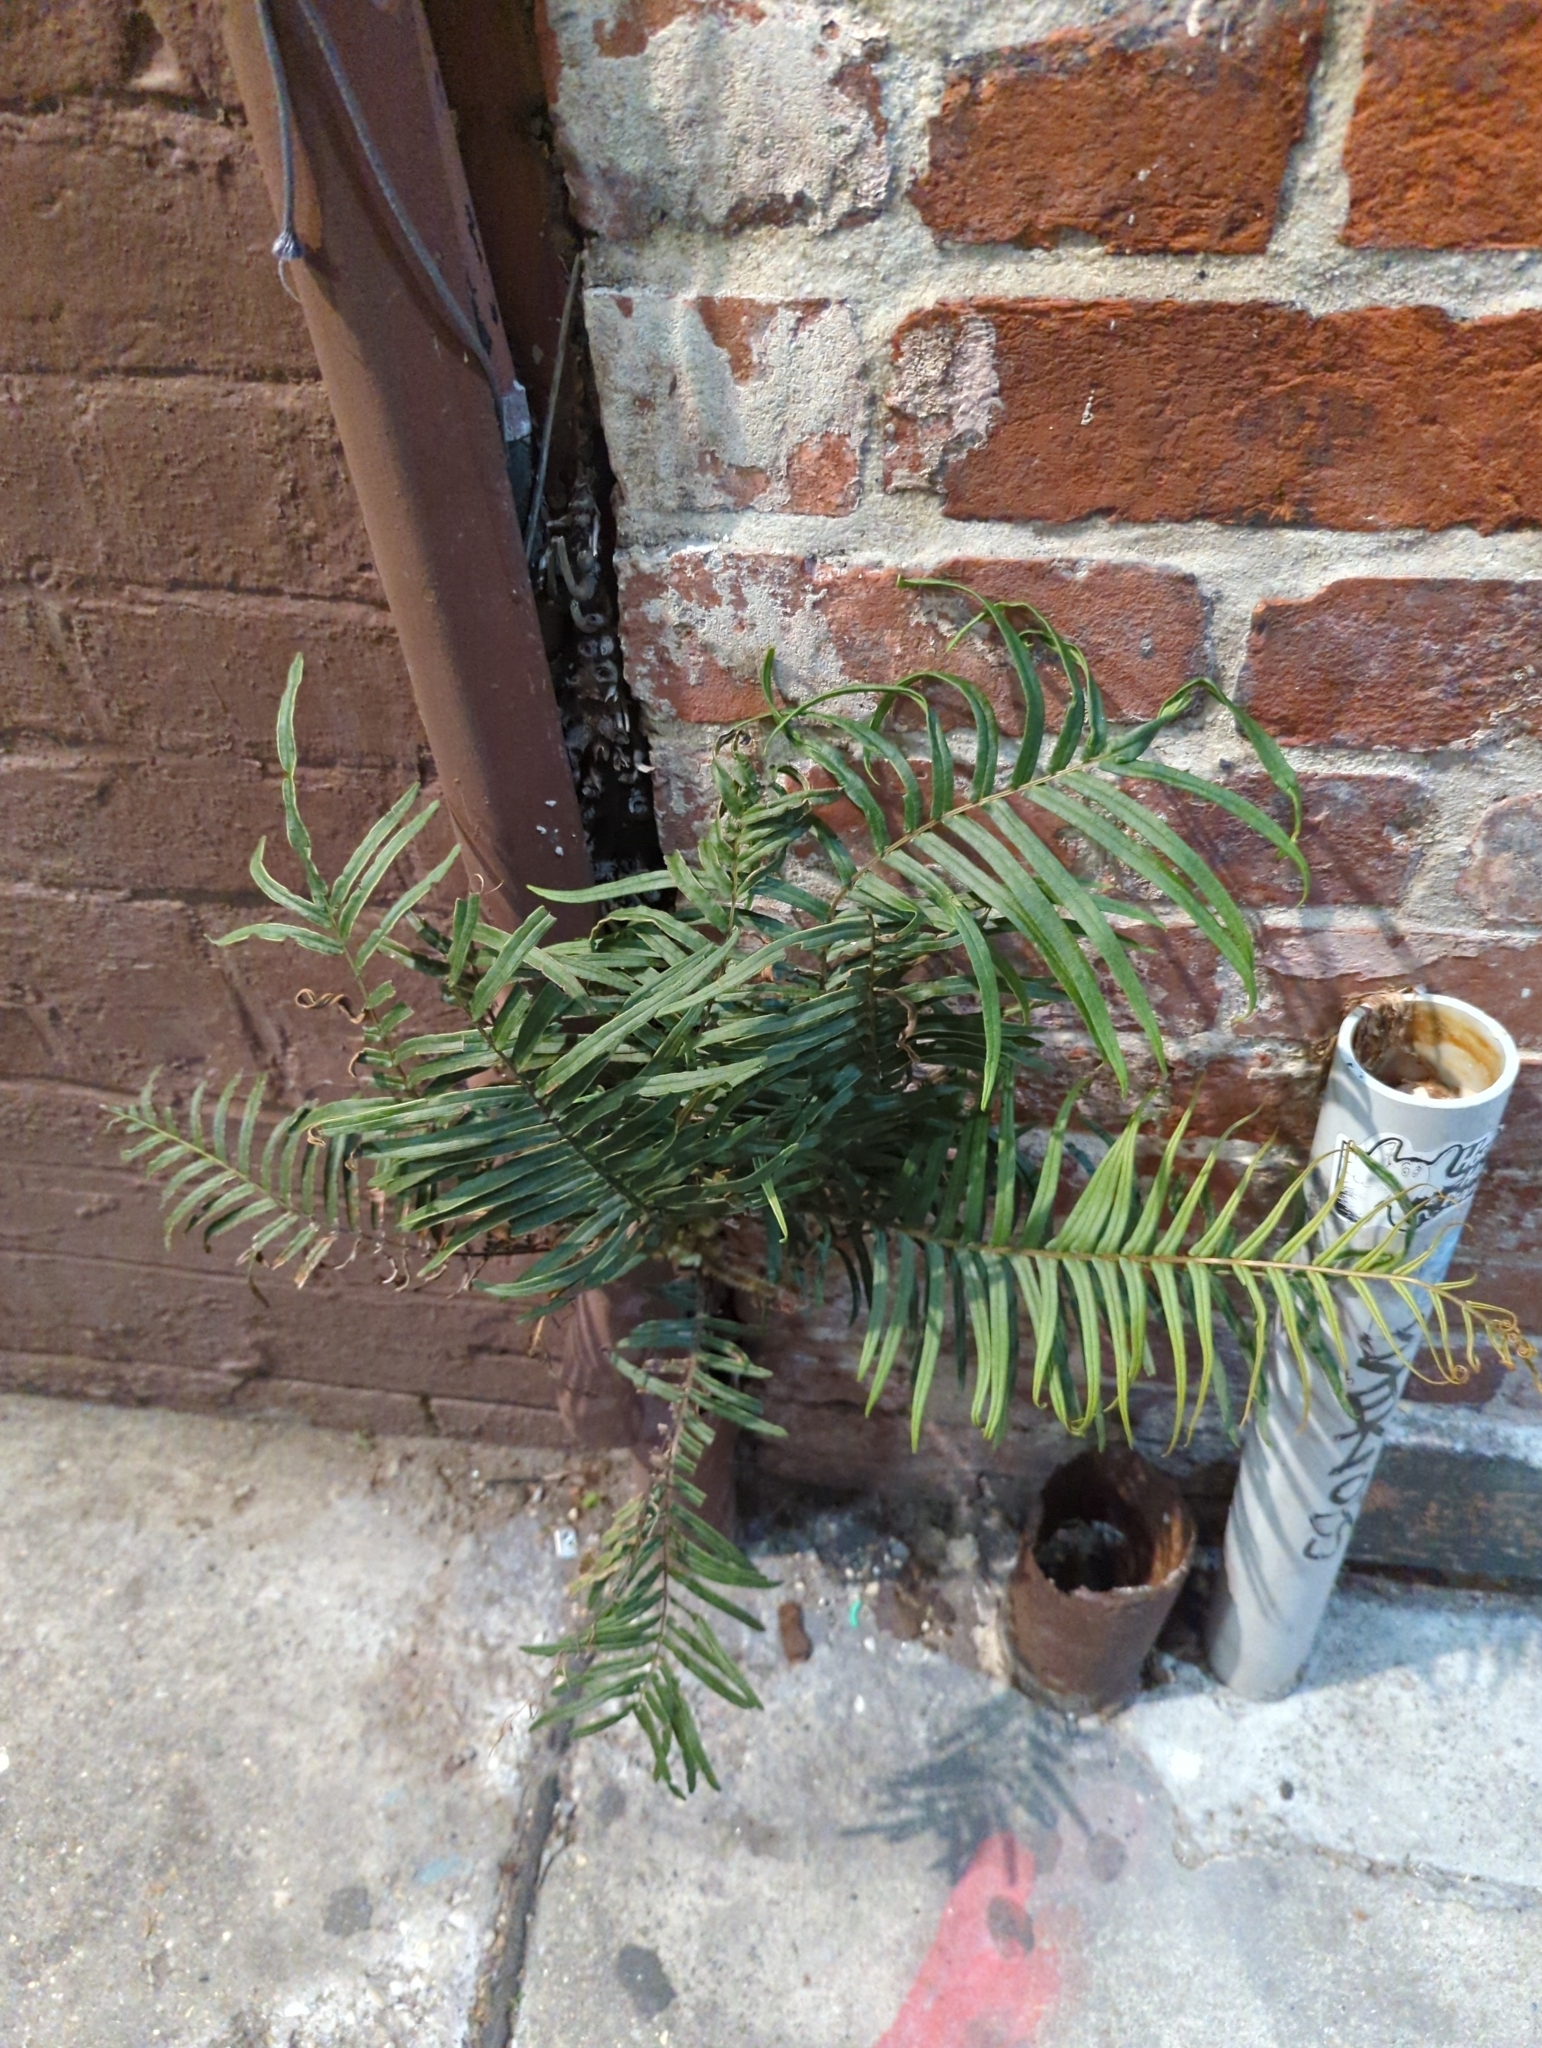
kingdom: Plantae
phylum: Tracheophyta
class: Polypodiopsida
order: Polypodiales
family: Pteridaceae
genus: Pteris
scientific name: Pteris vittata
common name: Ladder brake
